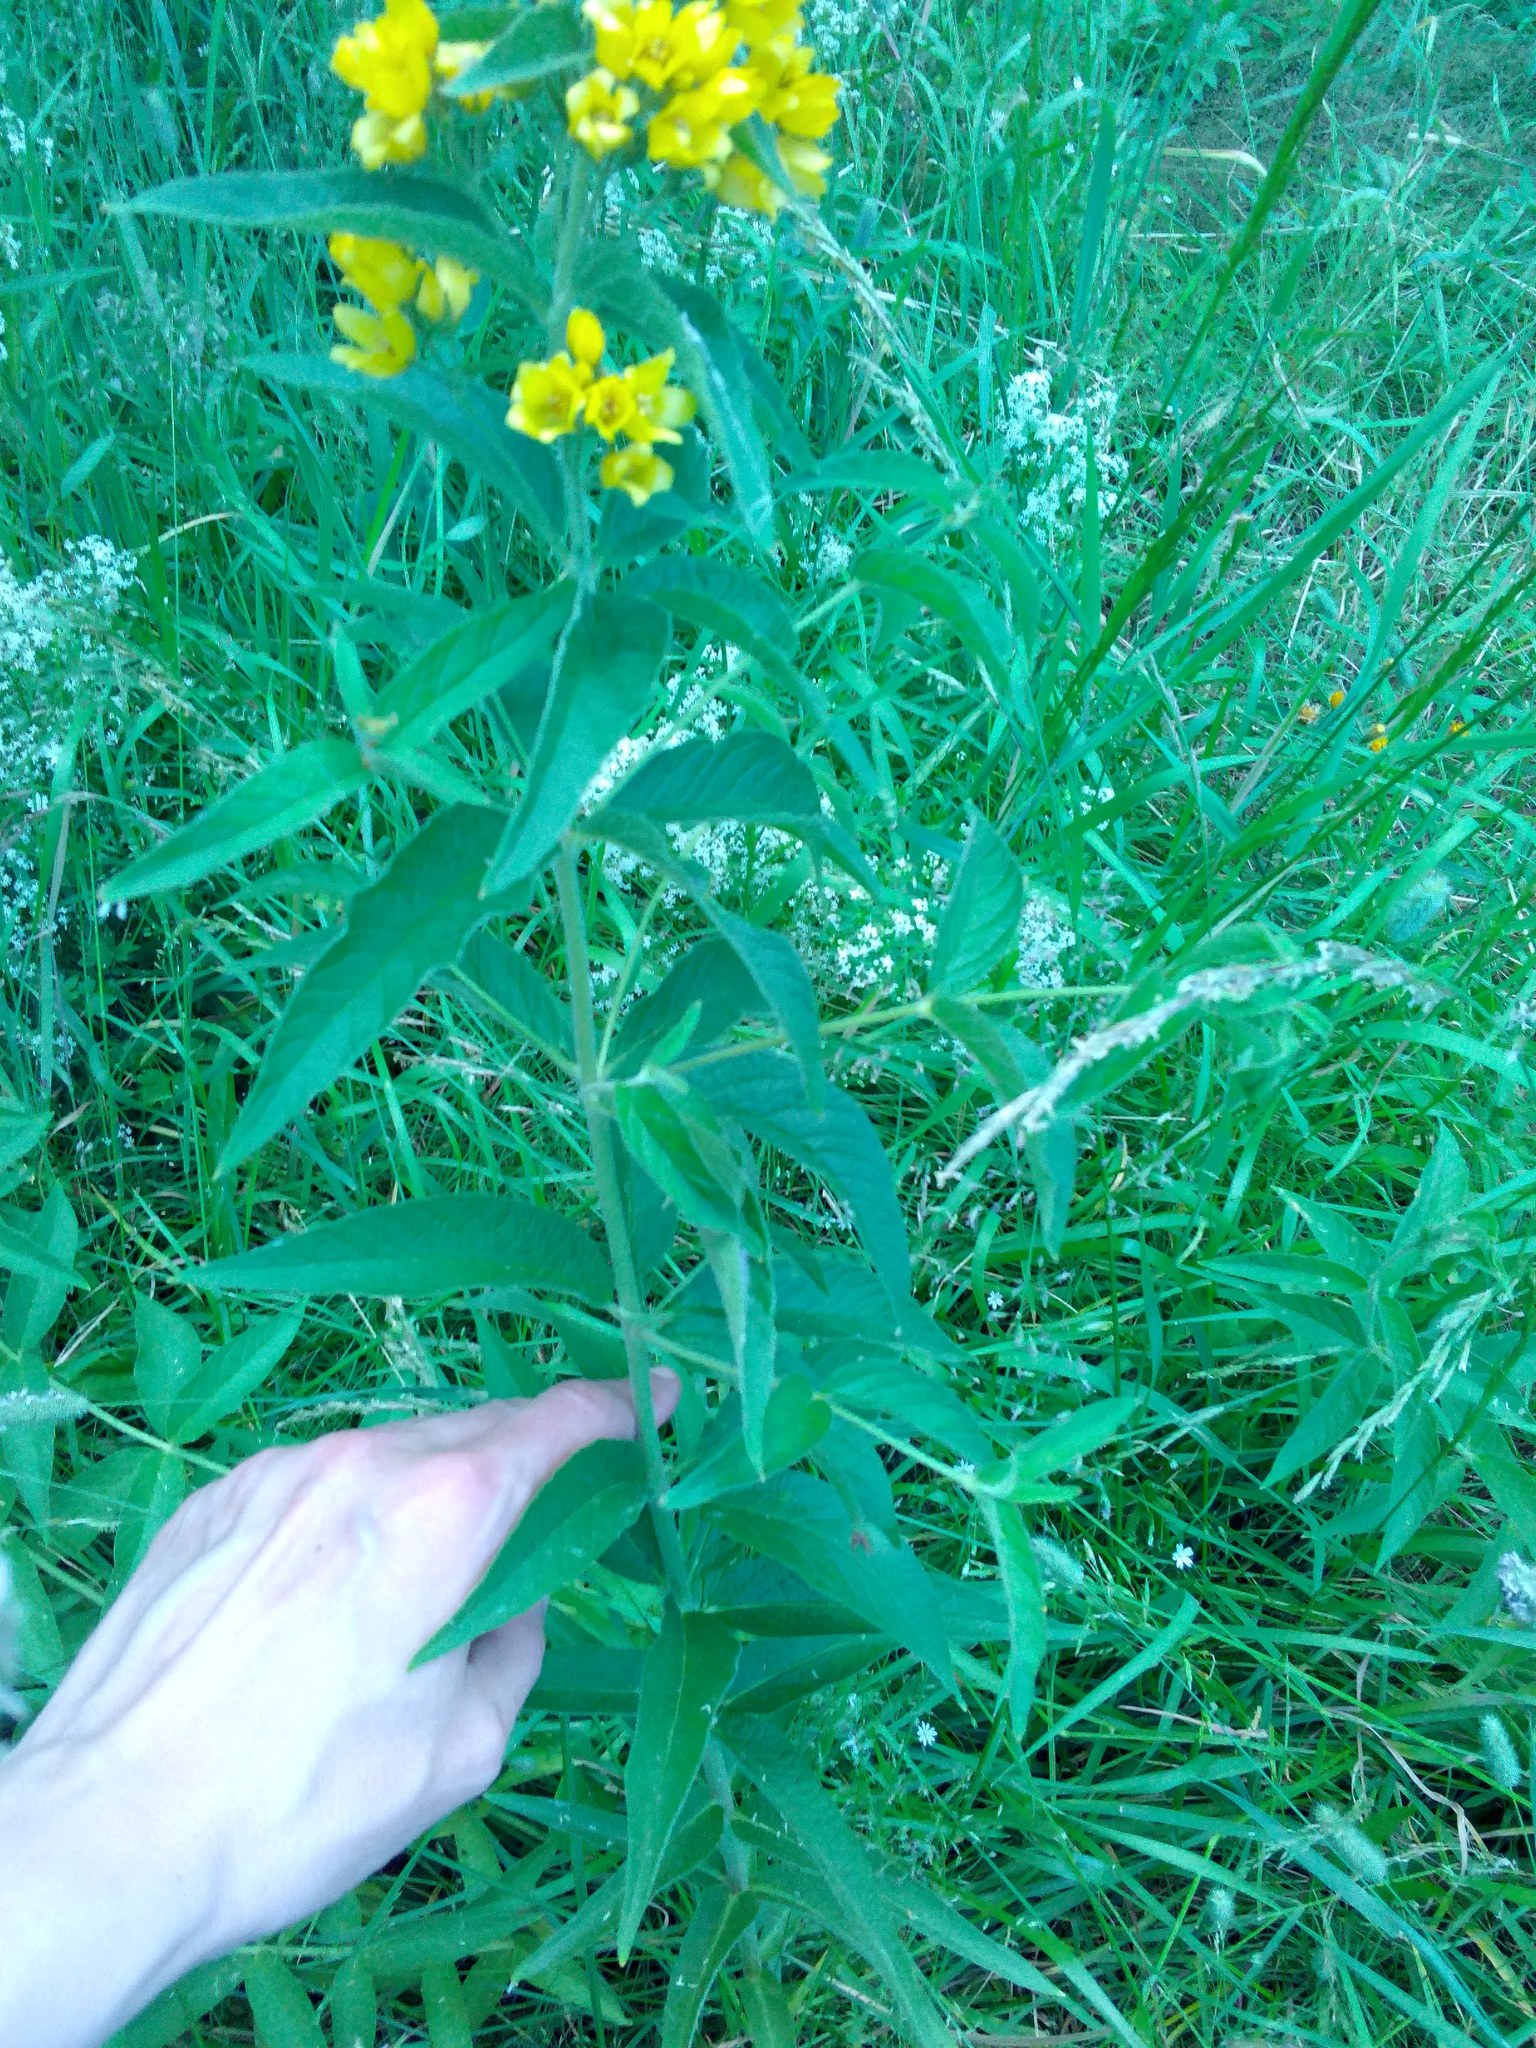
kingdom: Plantae
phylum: Tracheophyta
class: Magnoliopsida
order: Ericales
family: Primulaceae
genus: Lysimachia
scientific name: Lysimachia vulgaris
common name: Yellow loosestrife
